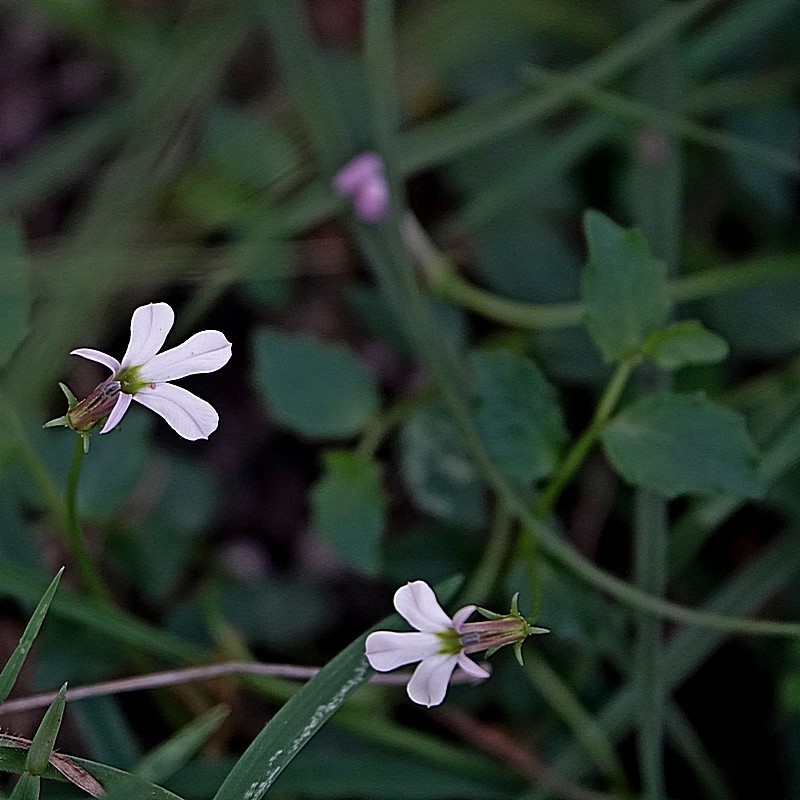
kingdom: Plantae
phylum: Tracheophyta
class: Magnoliopsida
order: Asterales
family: Campanulaceae
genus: Lobelia
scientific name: Lobelia purpurascens
